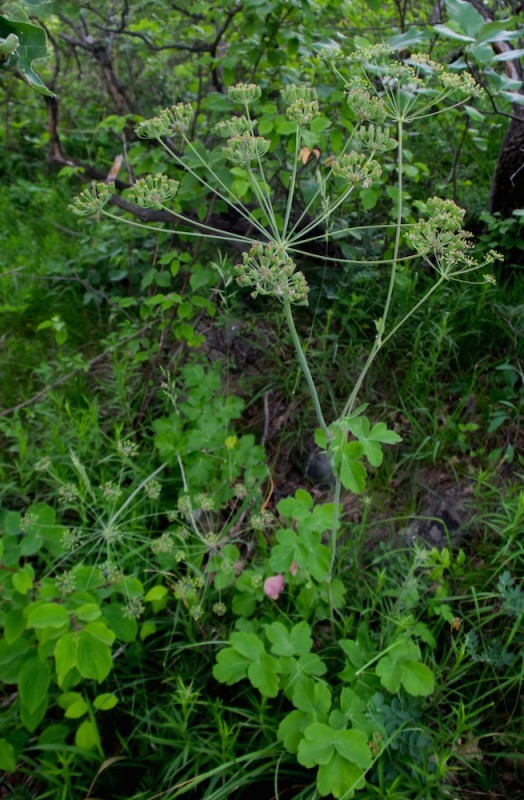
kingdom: Plantae
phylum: Tracheophyta
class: Magnoliopsida
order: Apiales
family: Apiaceae
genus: Laser
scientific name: Laser trilobum
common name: Laser
